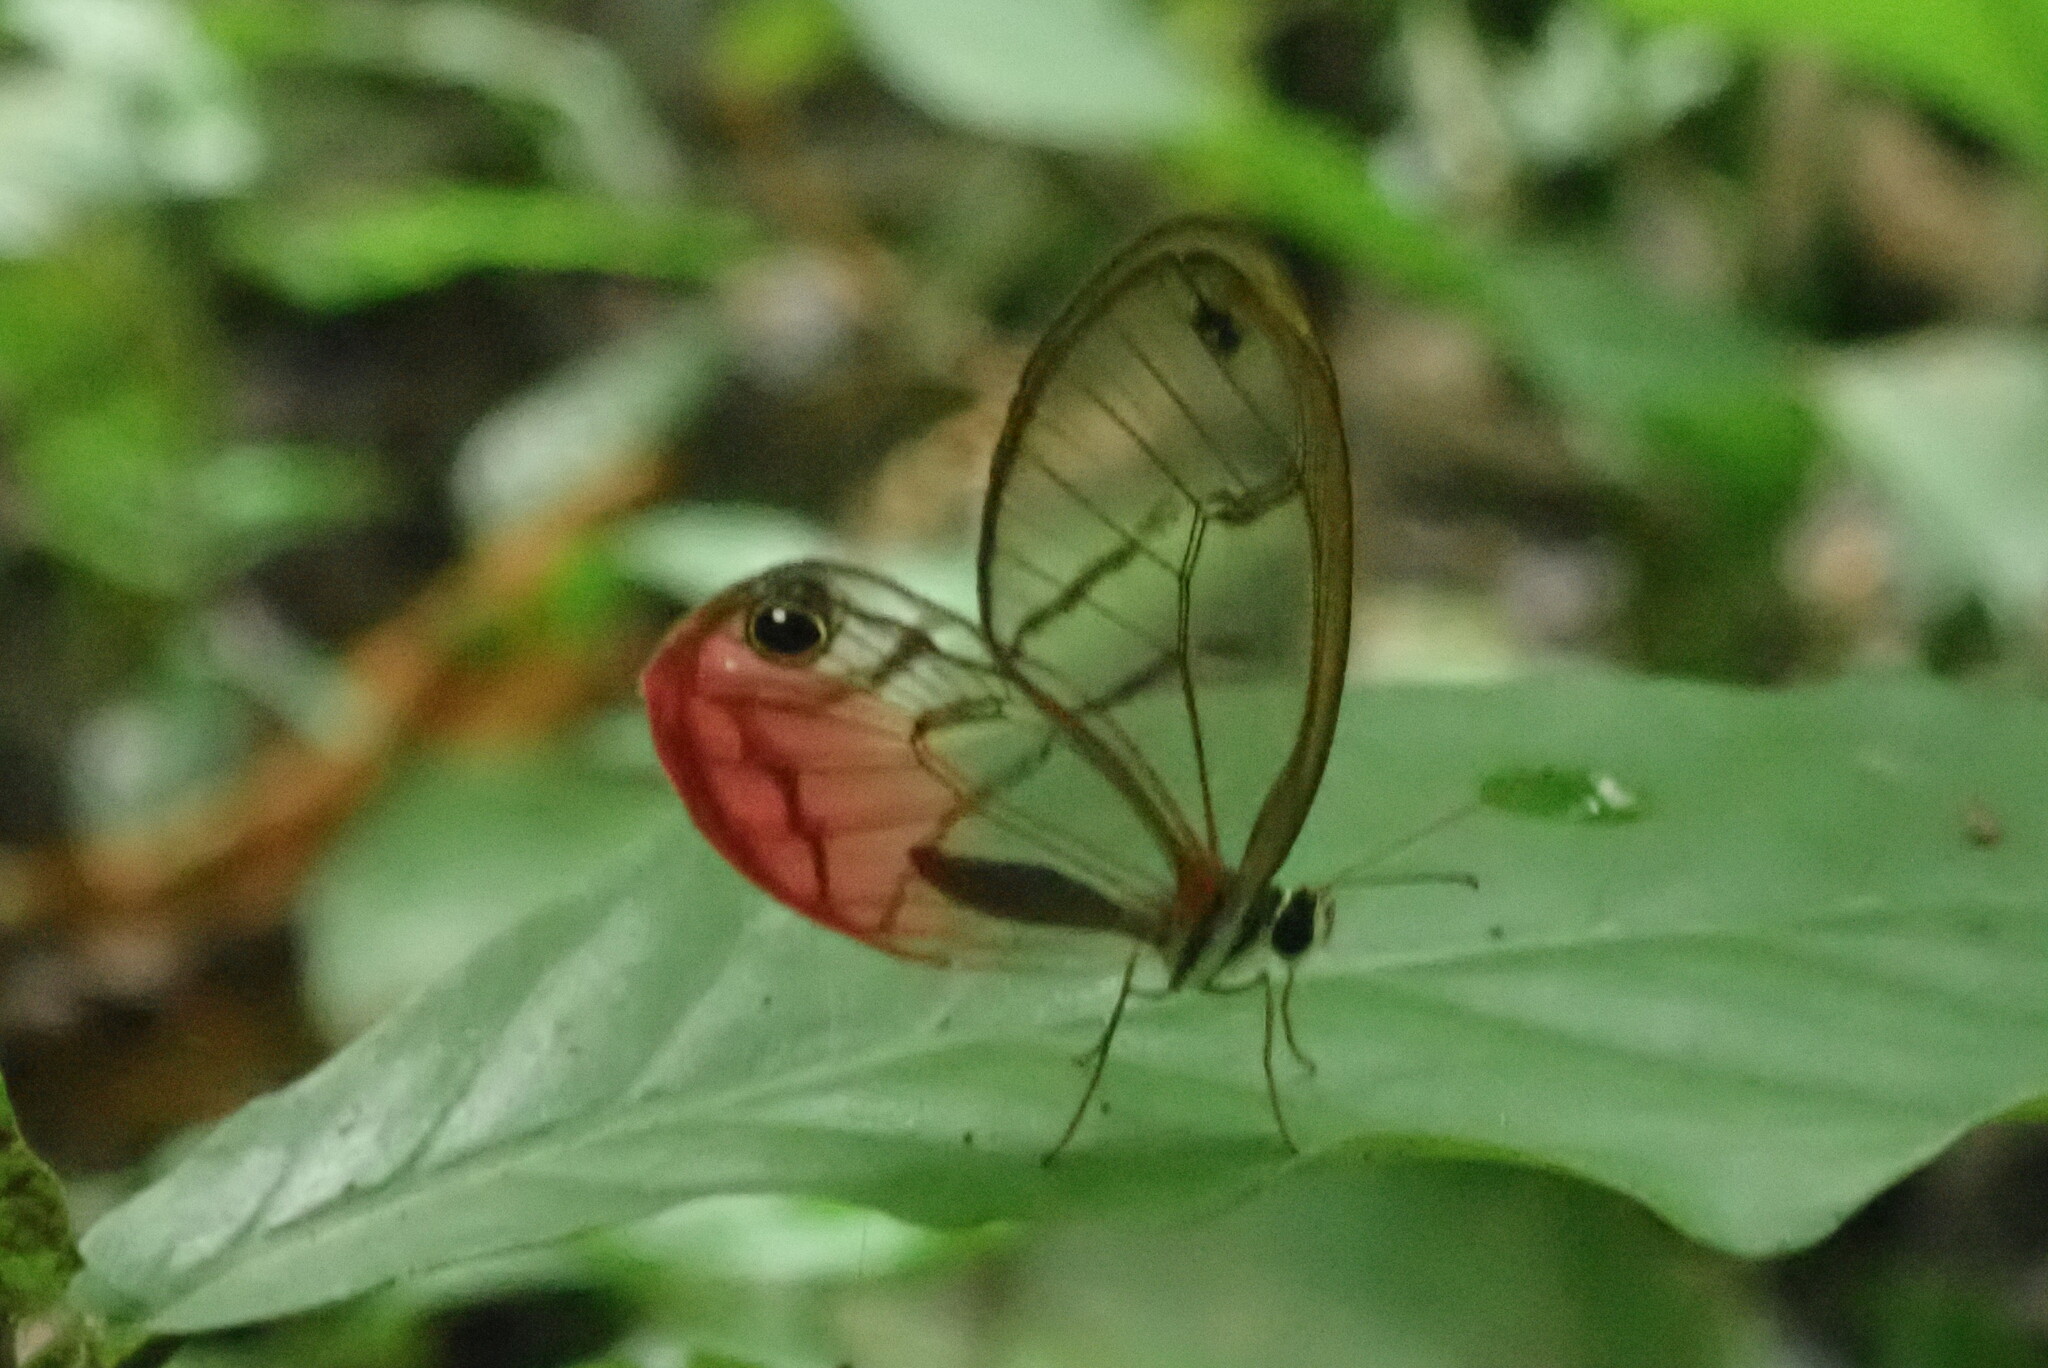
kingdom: Animalia
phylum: Arthropoda
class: Insecta
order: Lepidoptera
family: Nymphalidae
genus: Cithaerias
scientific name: Cithaerias pireta
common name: Rusted clearwing-satyr
